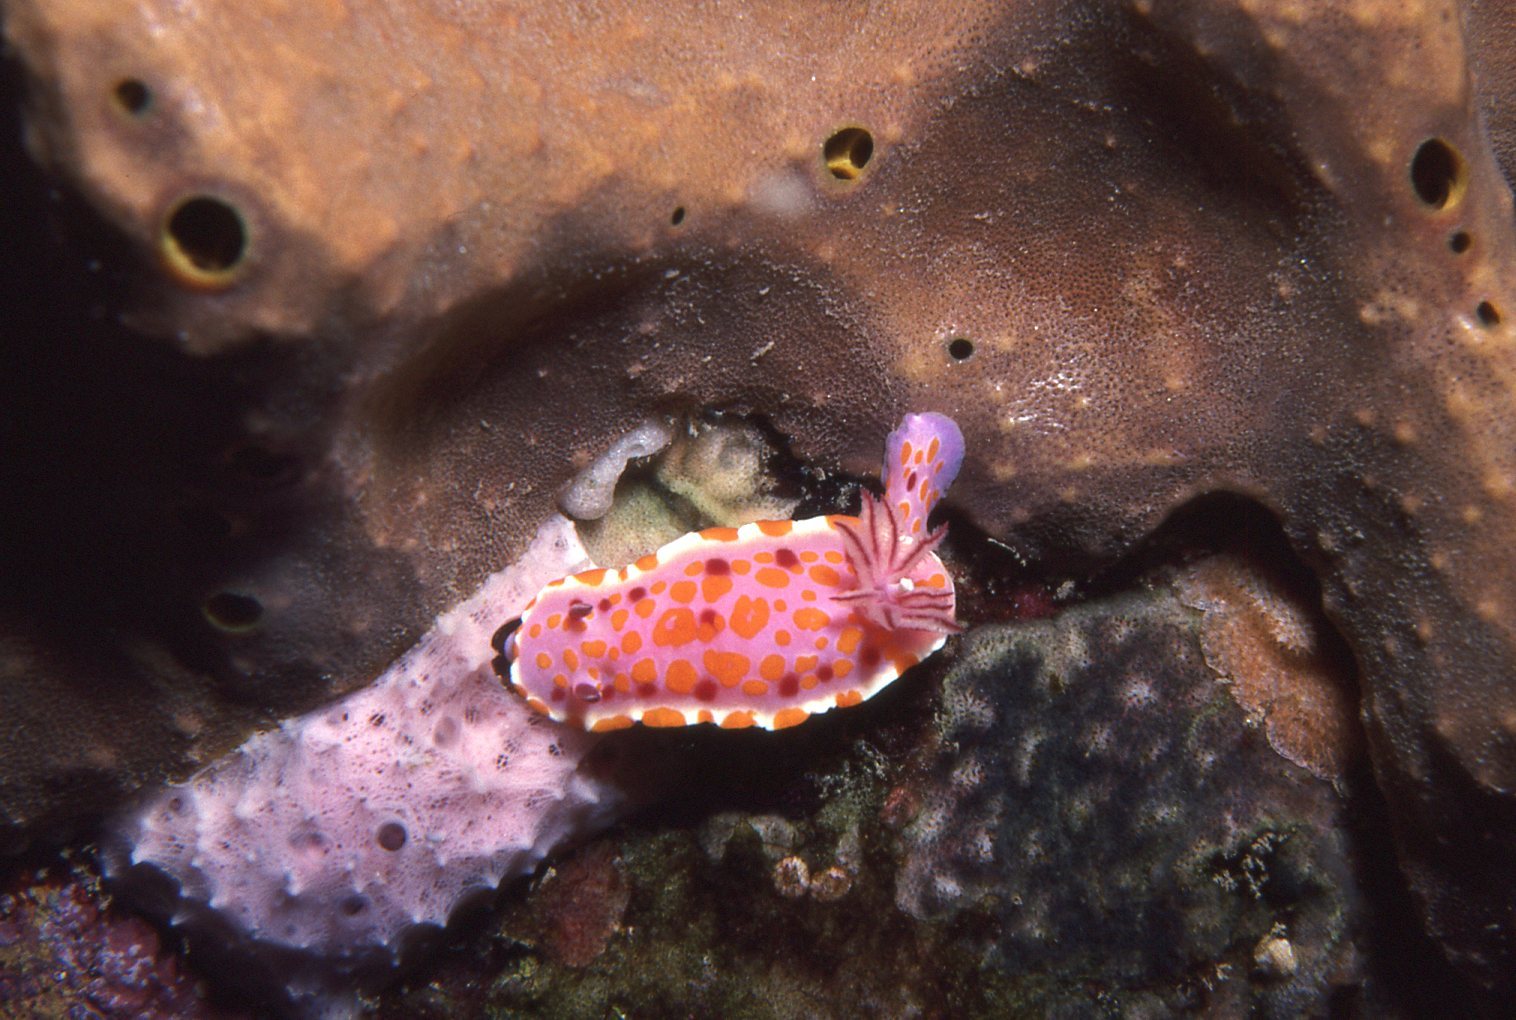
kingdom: Animalia
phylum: Mollusca
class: Gastropoda
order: Nudibranchia
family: Chromodorididae
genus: Ceratosoma
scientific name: Ceratosoma amoenum
